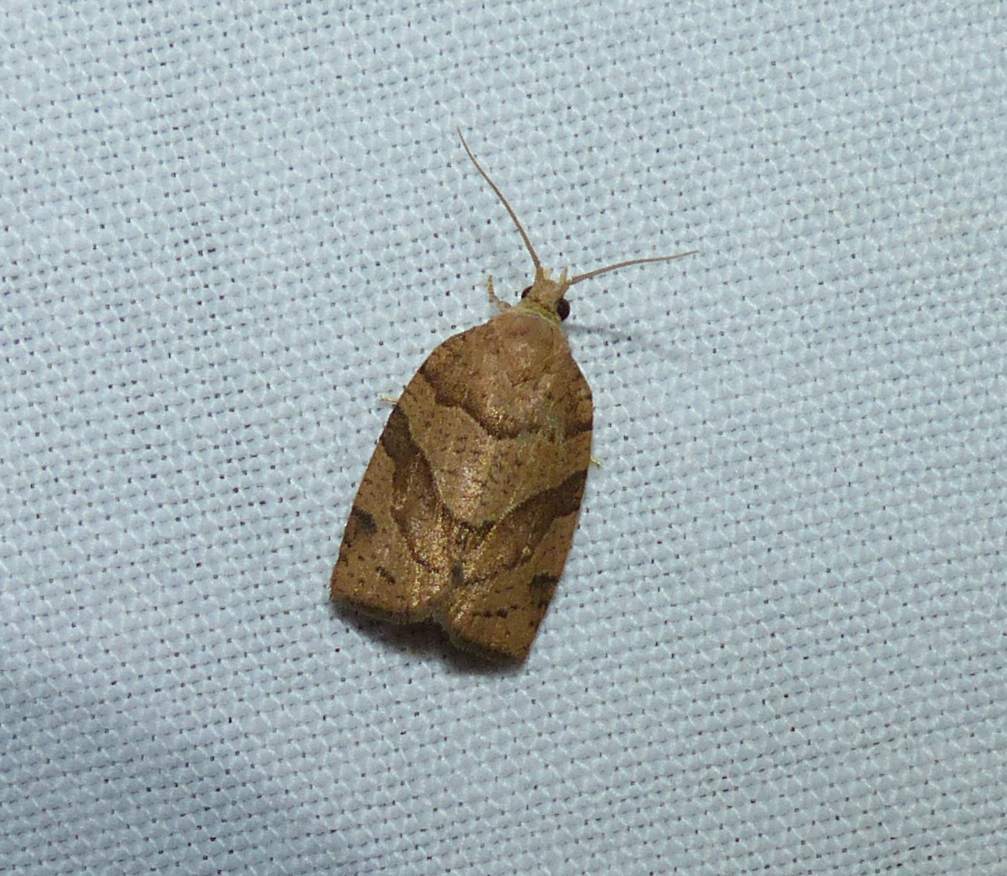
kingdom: Animalia
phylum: Arthropoda
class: Insecta
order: Lepidoptera
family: Tortricidae
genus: Pandemis
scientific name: Pandemis lamprosana
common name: Woodgrain leafroller moth
